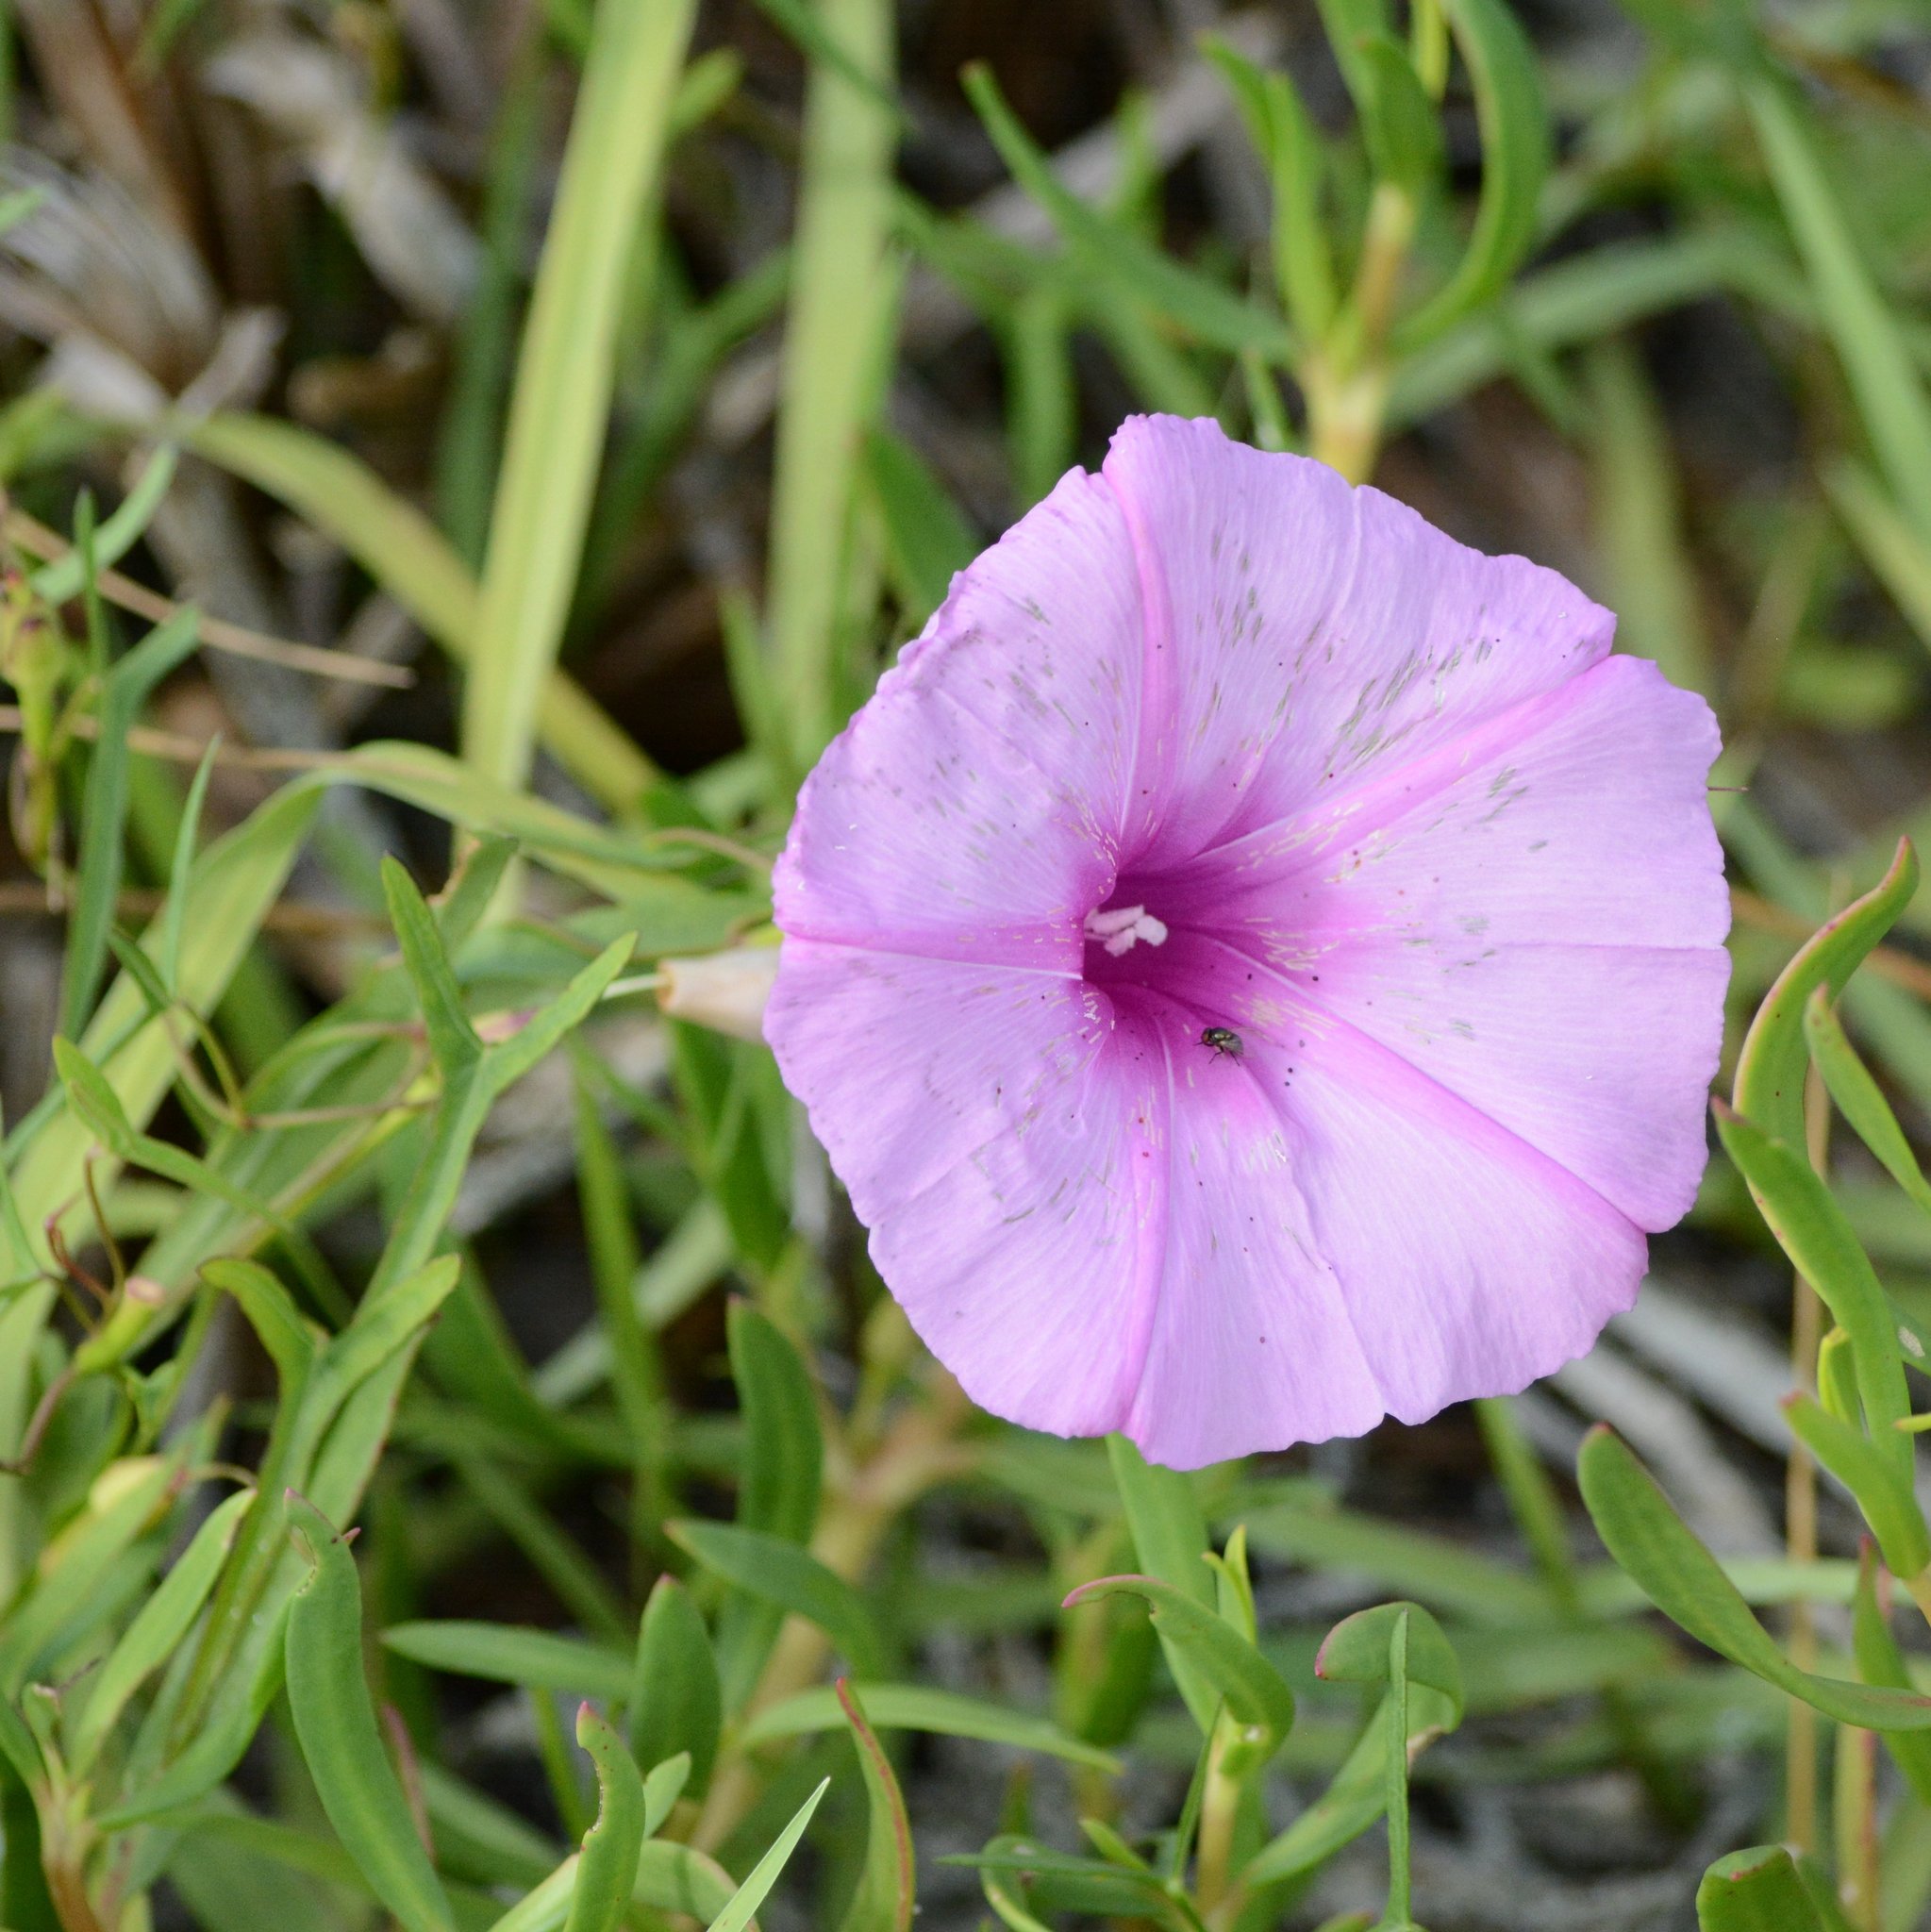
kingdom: Plantae
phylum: Tracheophyta
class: Magnoliopsida
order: Solanales
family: Convolvulaceae
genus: Ipomoea
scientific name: Ipomoea sagittata
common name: Saltmarsh morning glory
